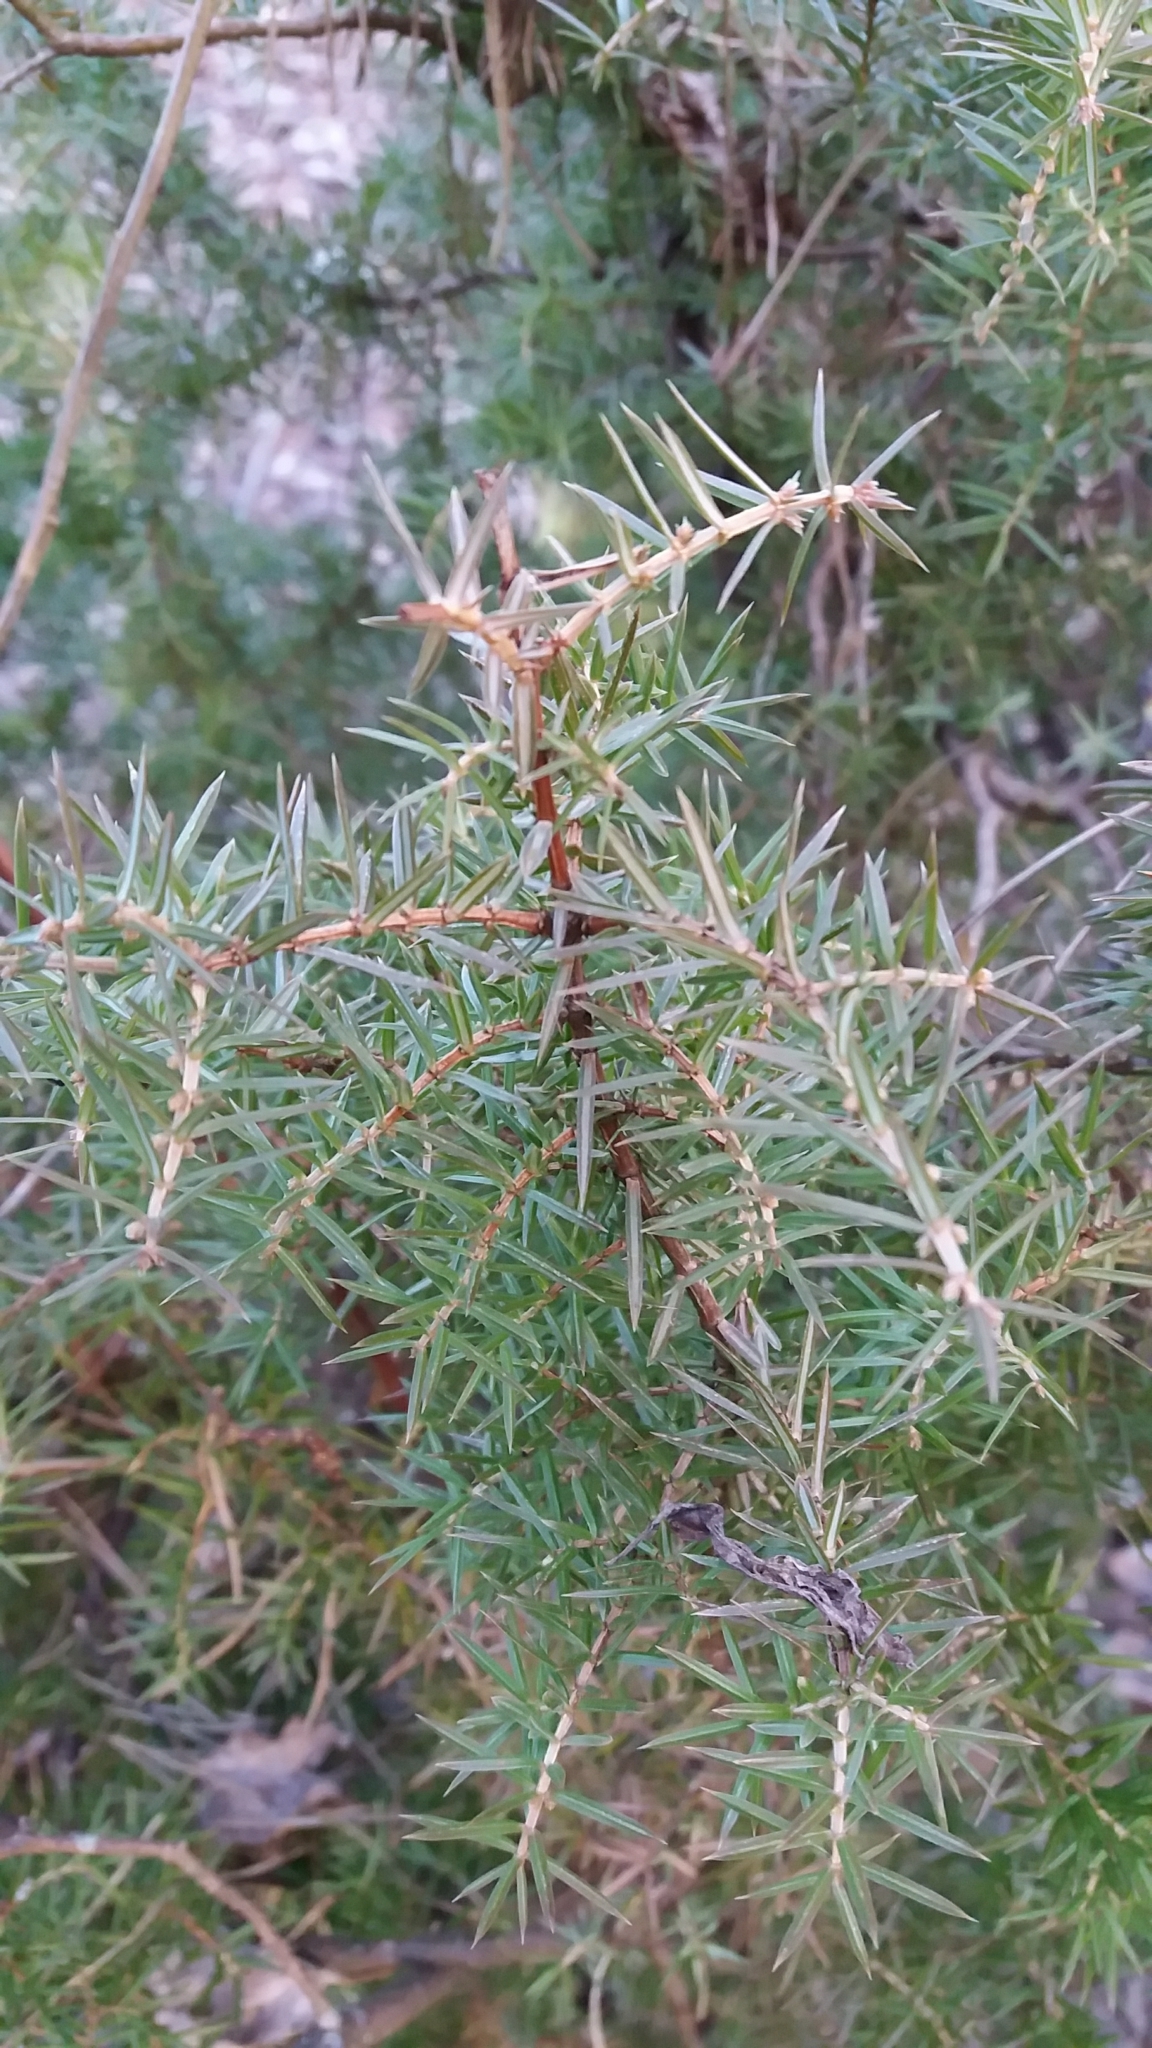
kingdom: Plantae
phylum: Tracheophyta
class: Pinopsida
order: Pinales
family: Cupressaceae
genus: Juniperus
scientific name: Juniperus communis
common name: Common juniper
